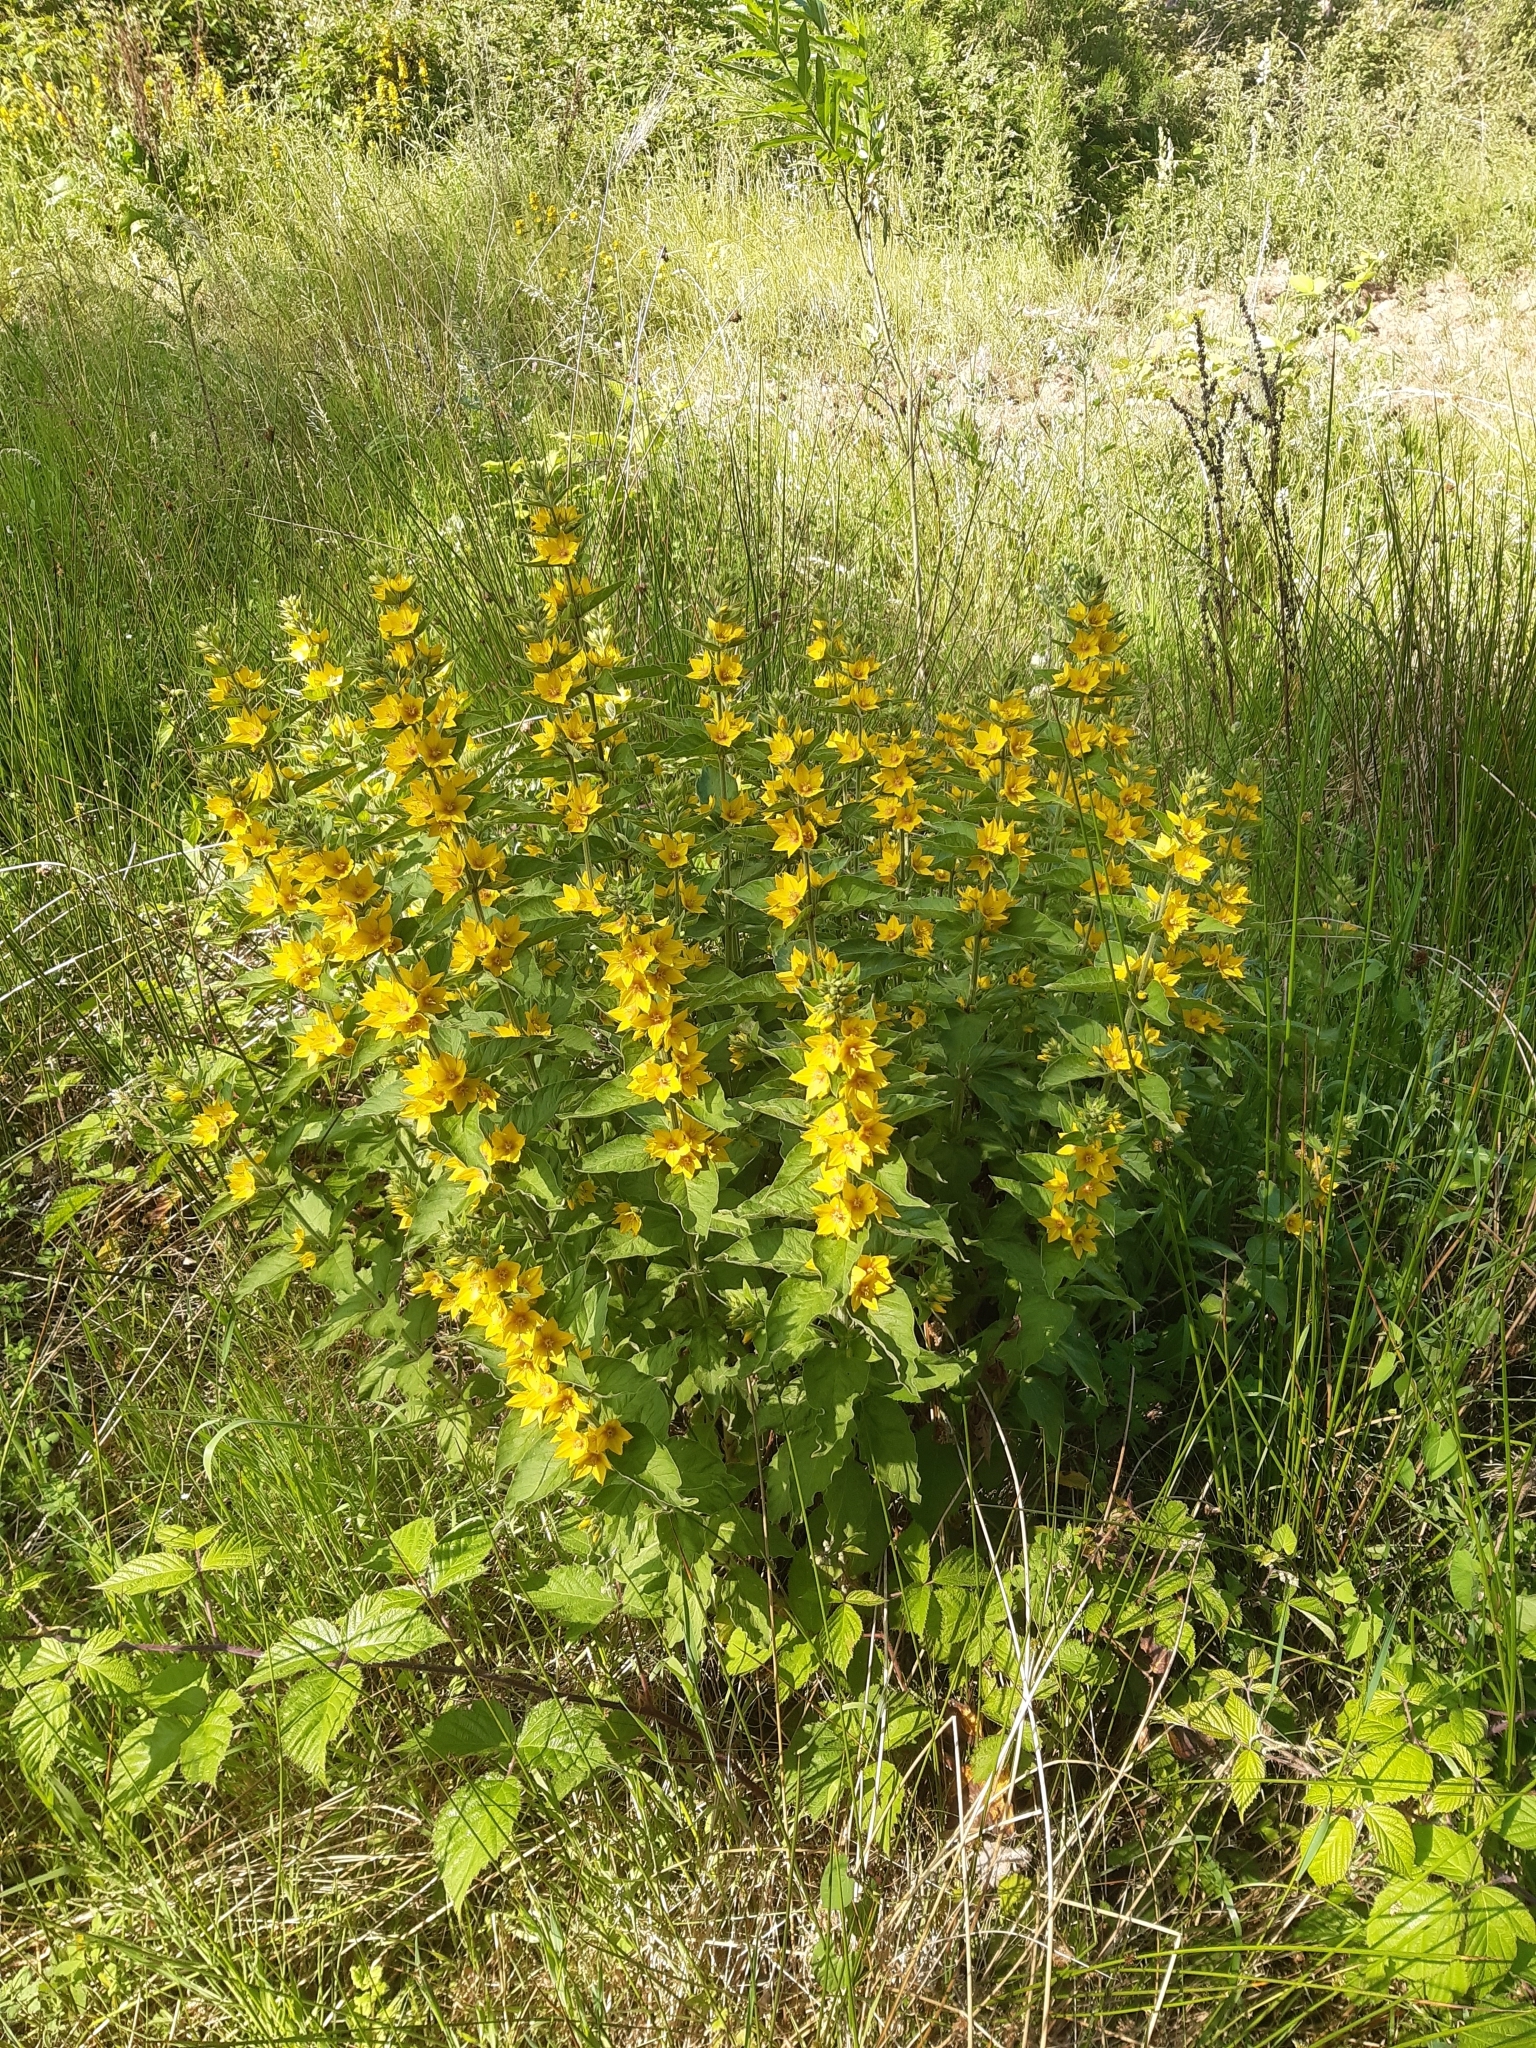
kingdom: Plantae
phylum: Tracheophyta
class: Magnoliopsida
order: Ericales
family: Primulaceae
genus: Lysimachia
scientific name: Lysimachia punctata
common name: Dotted loosestrife
